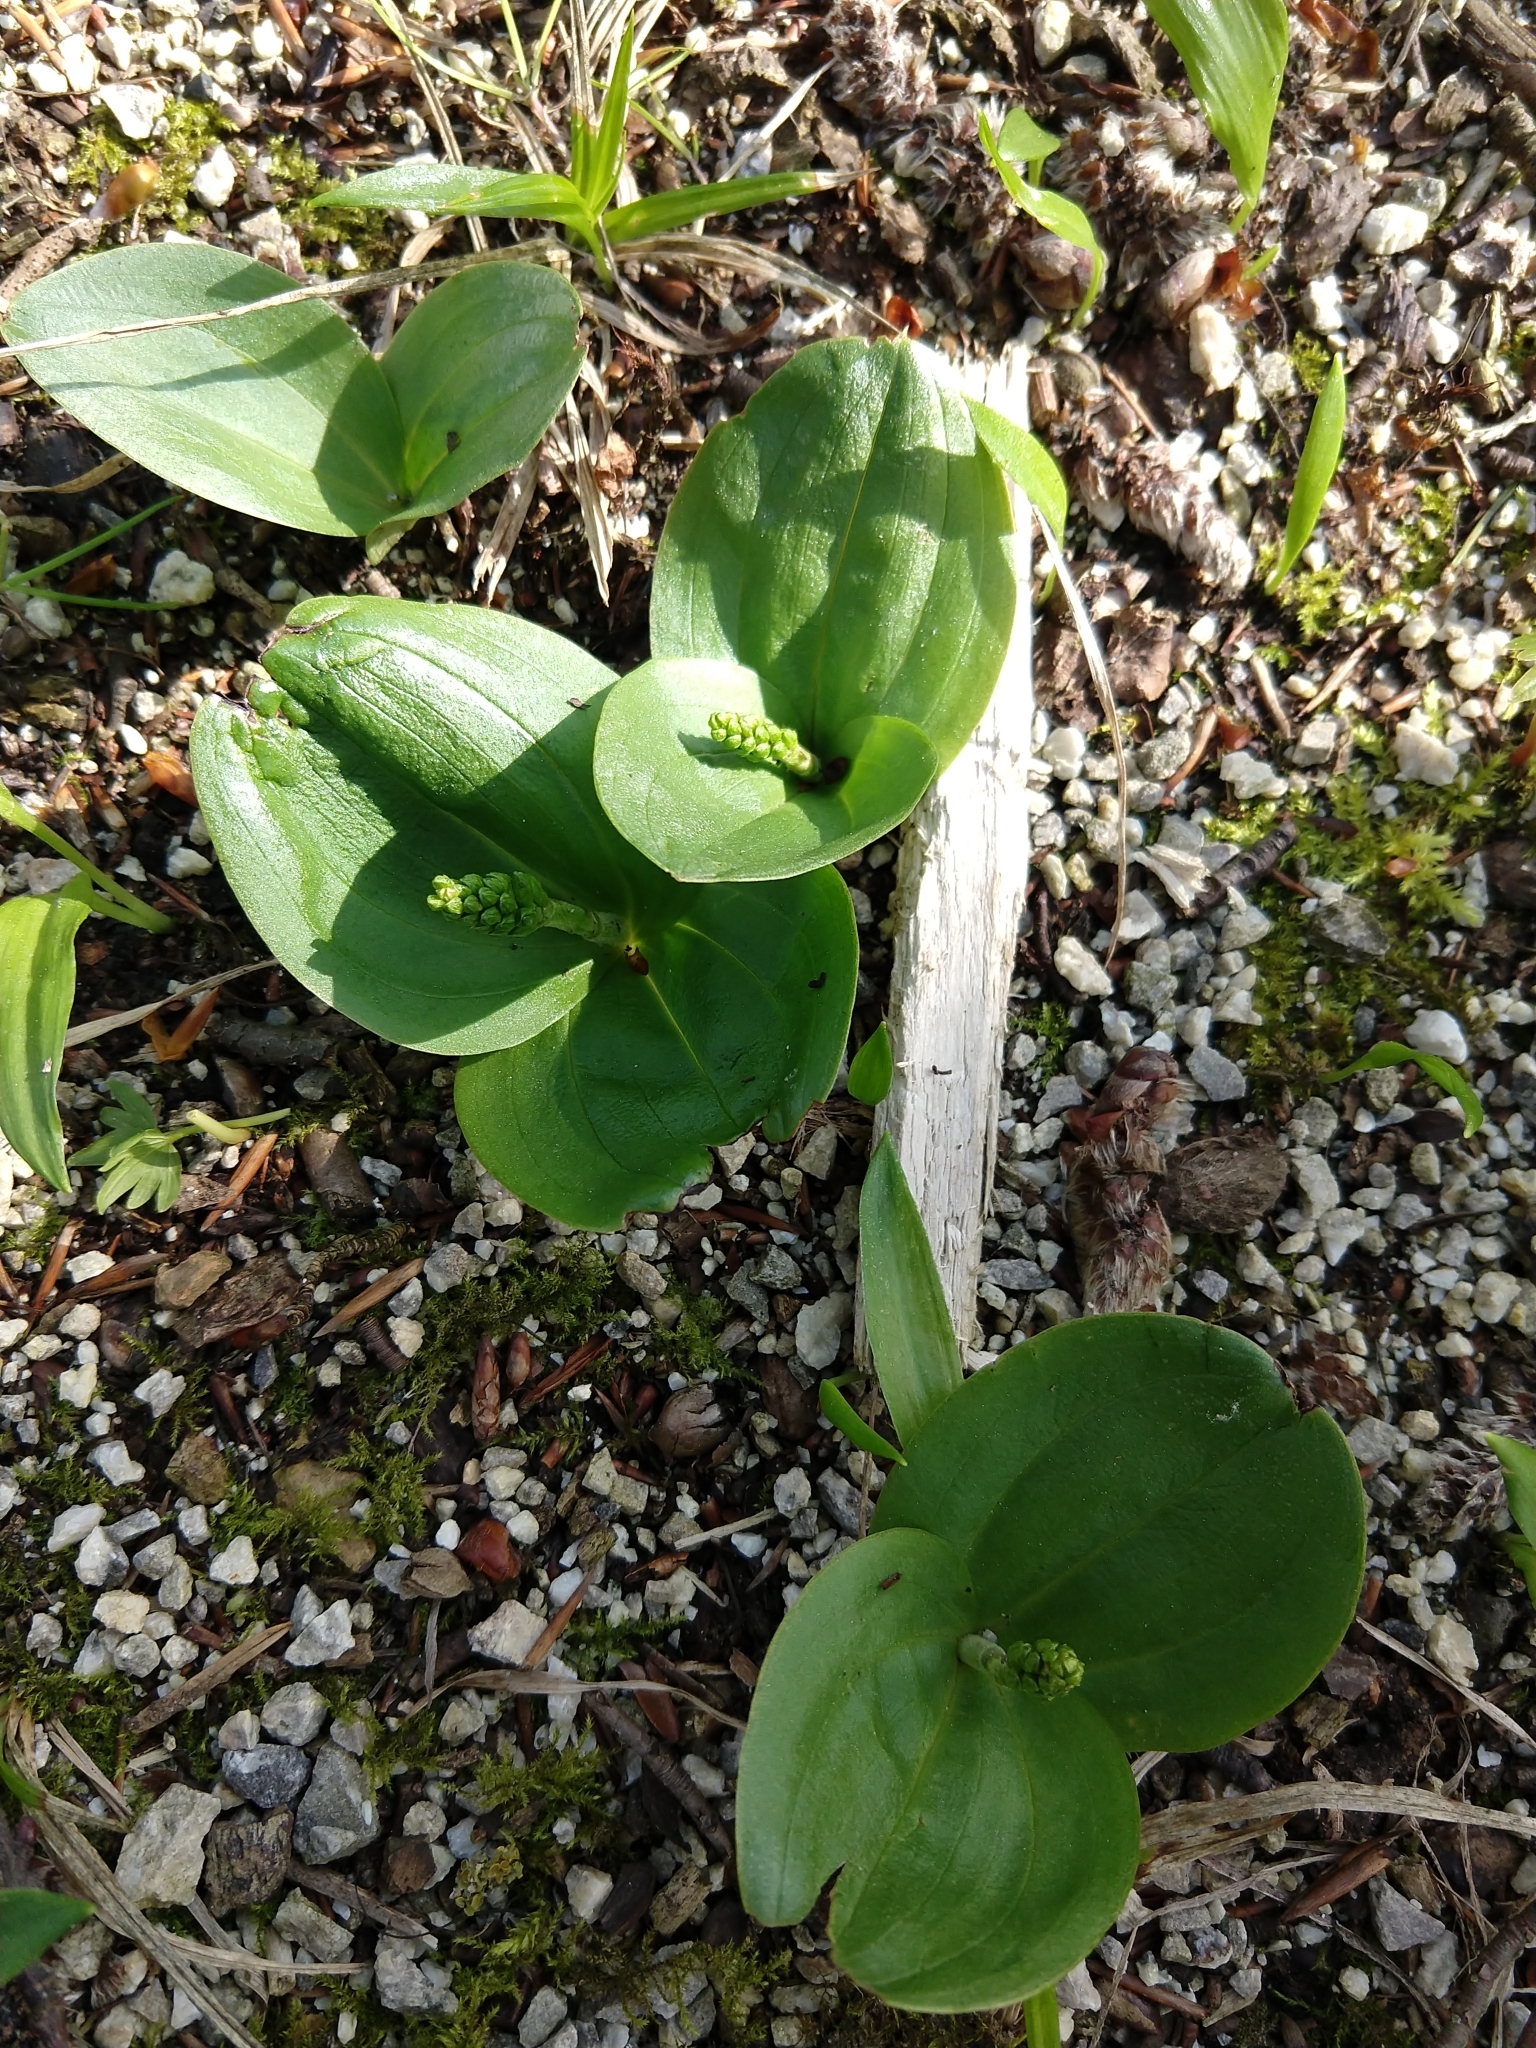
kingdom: Plantae
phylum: Tracheophyta
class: Liliopsida
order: Asparagales
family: Orchidaceae
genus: Neottia
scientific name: Neottia ovata
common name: Common twayblade
